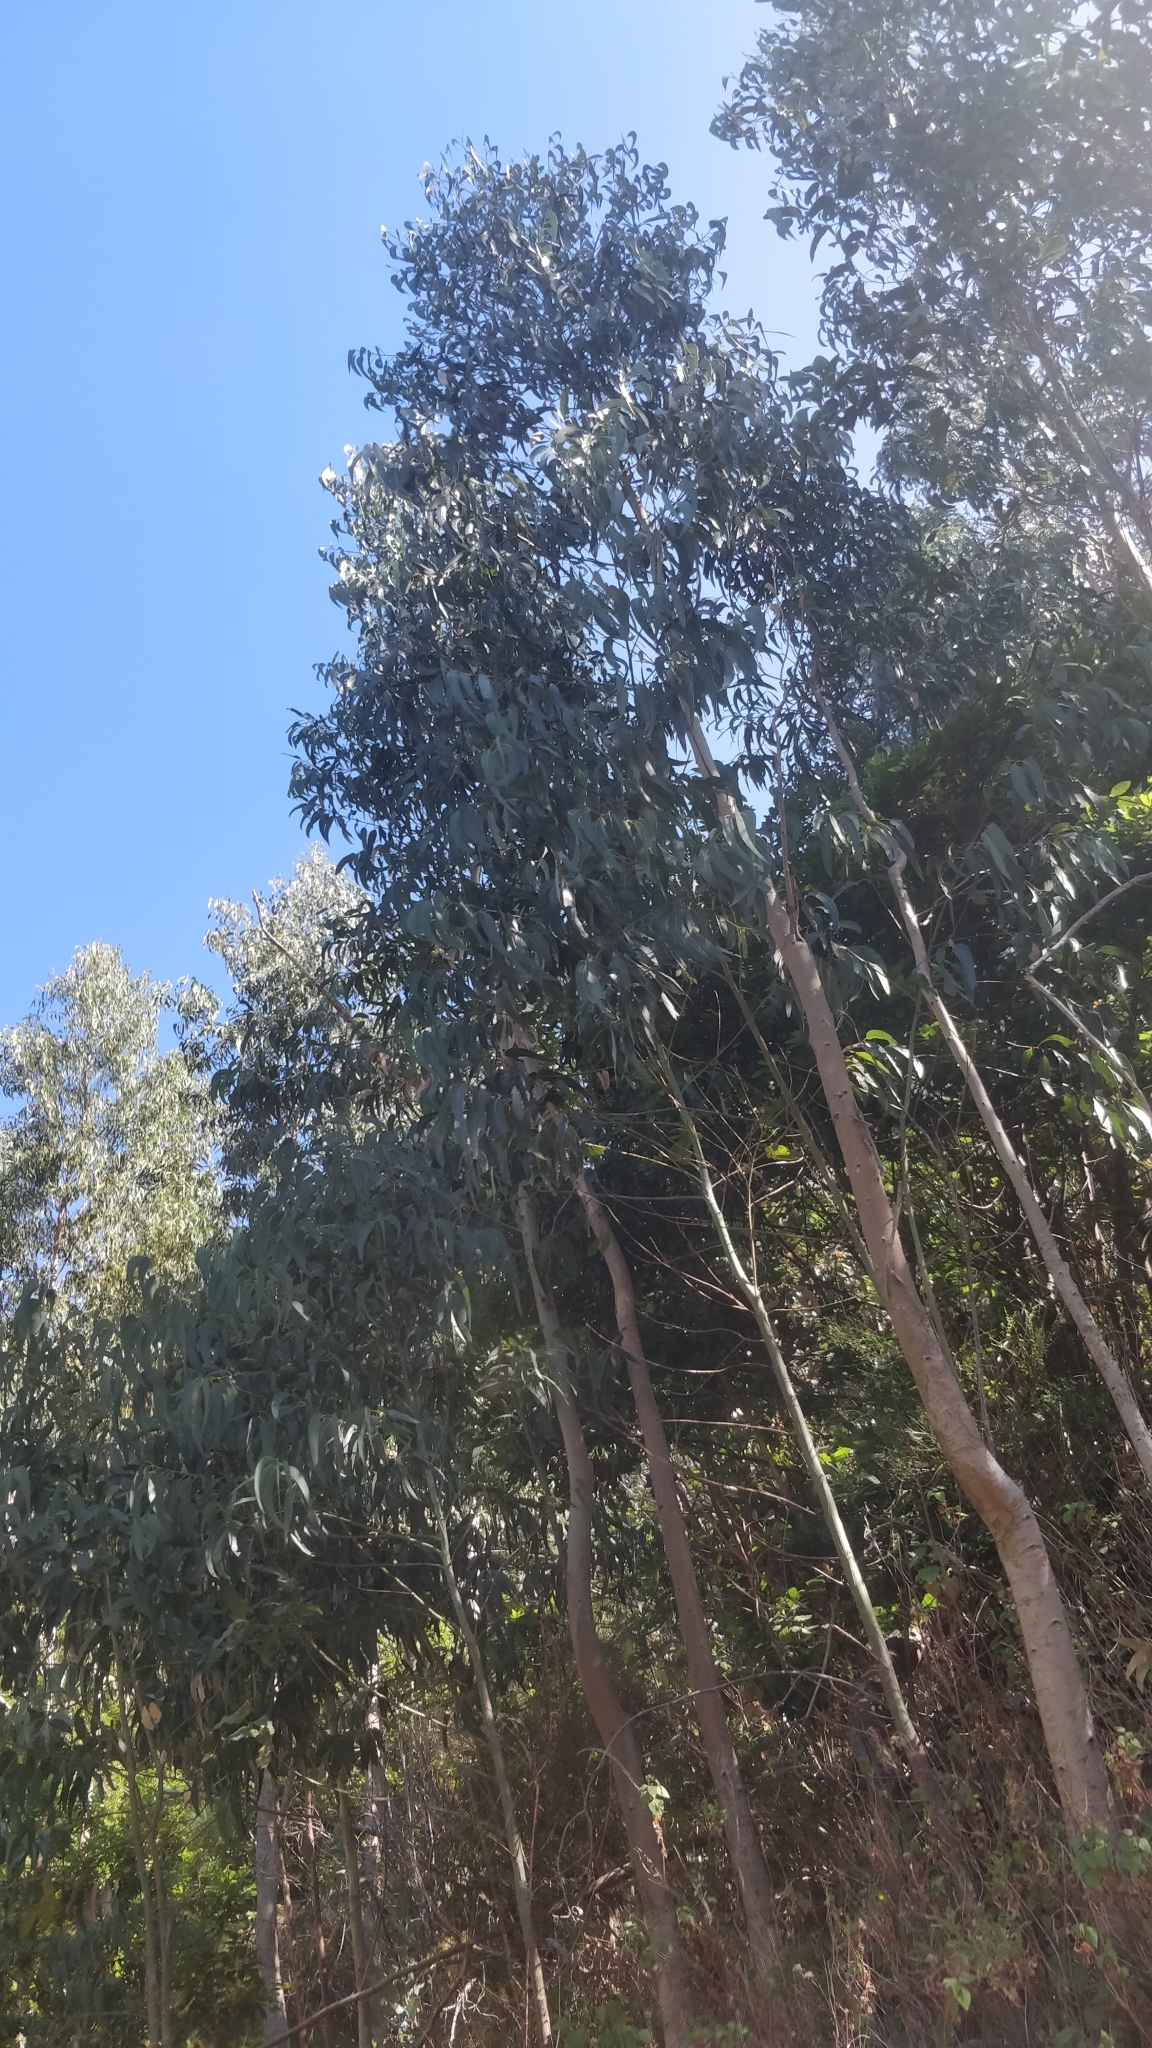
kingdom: Plantae
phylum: Tracheophyta
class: Magnoliopsida
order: Myrtales
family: Myrtaceae
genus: Eucalyptus
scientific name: Eucalyptus globulus
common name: Southern blue-gum
